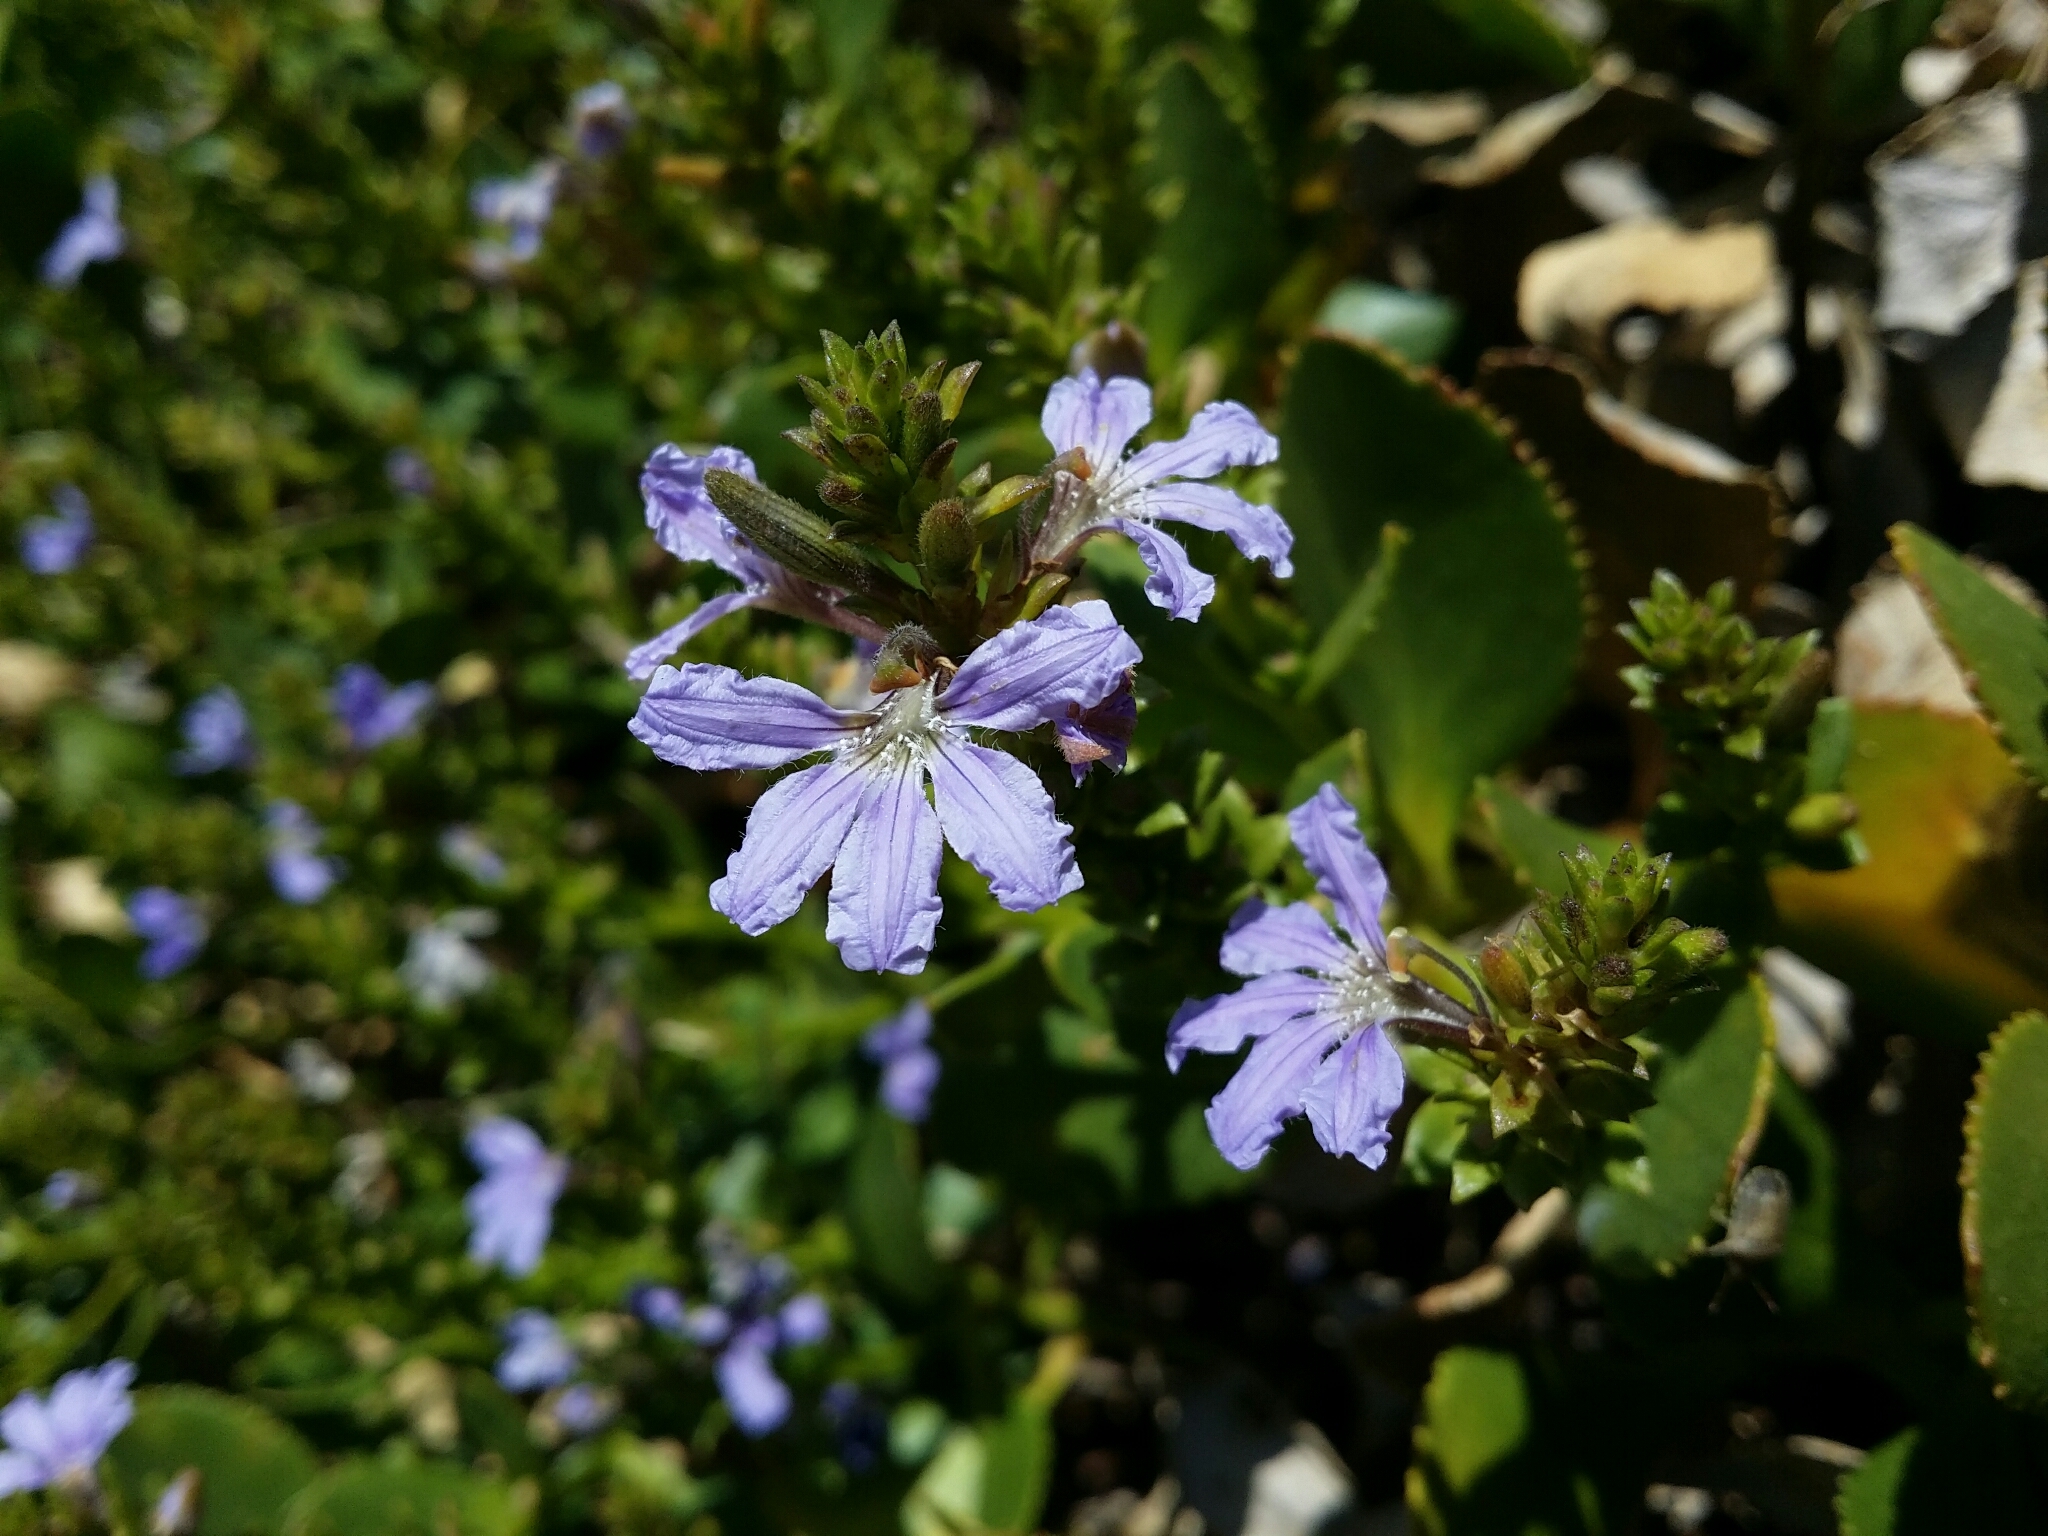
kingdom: Plantae
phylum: Tracheophyta
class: Magnoliopsida
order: Asterales
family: Goodeniaceae
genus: Scaevola
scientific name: Scaevola crassifolia
